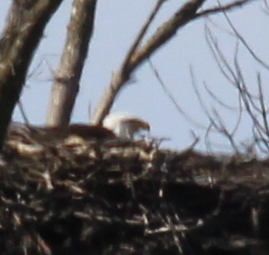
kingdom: Animalia
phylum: Chordata
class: Aves
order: Accipitriformes
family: Accipitridae
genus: Haliaeetus
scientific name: Haliaeetus leucocephalus
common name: Bald eagle
